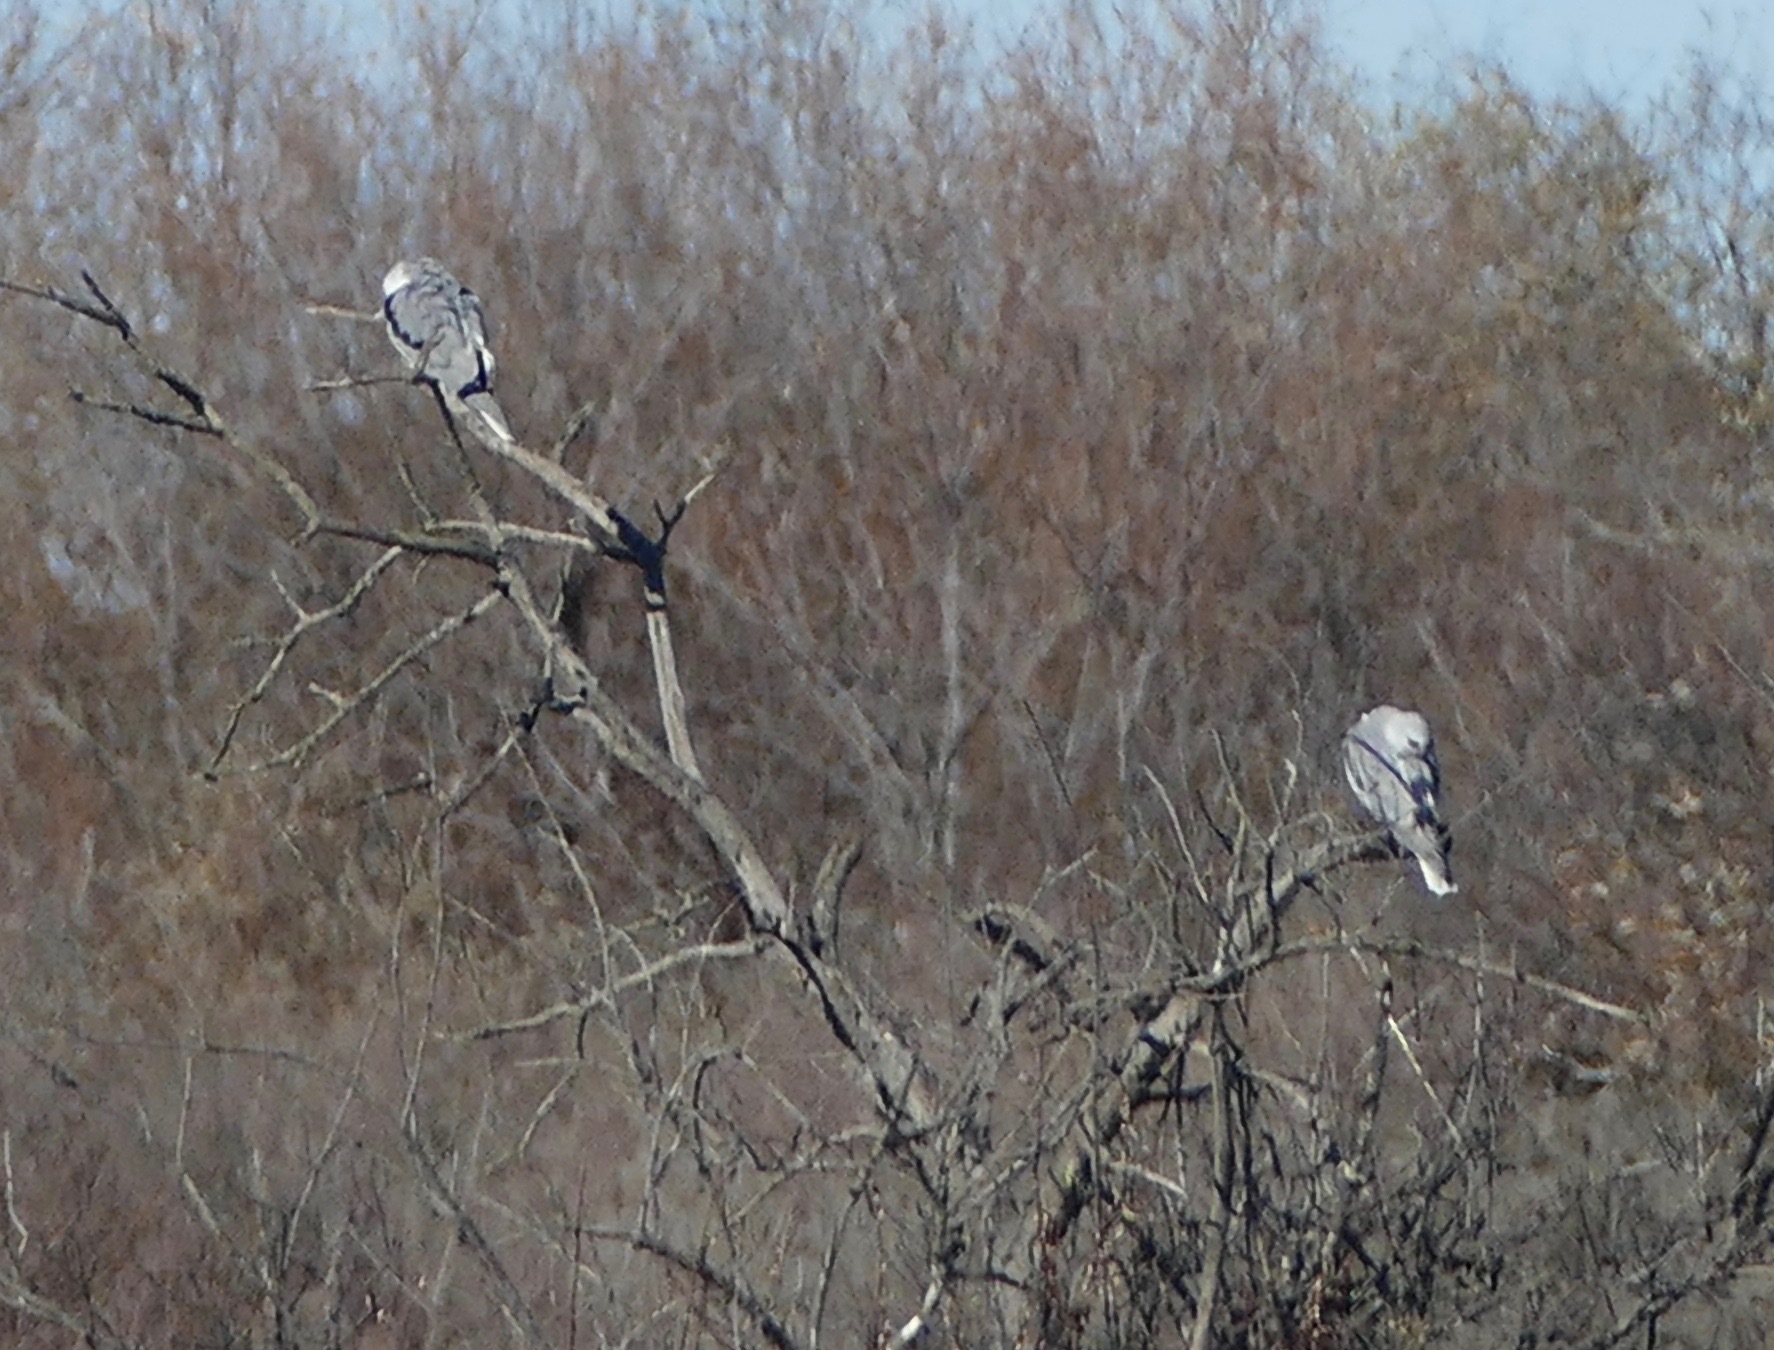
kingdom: Animalia
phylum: Chordata
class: Aves
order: Accipitriformes
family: Accipitridae
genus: Elanus
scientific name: Elanus leucurus
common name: White-tailed kite
